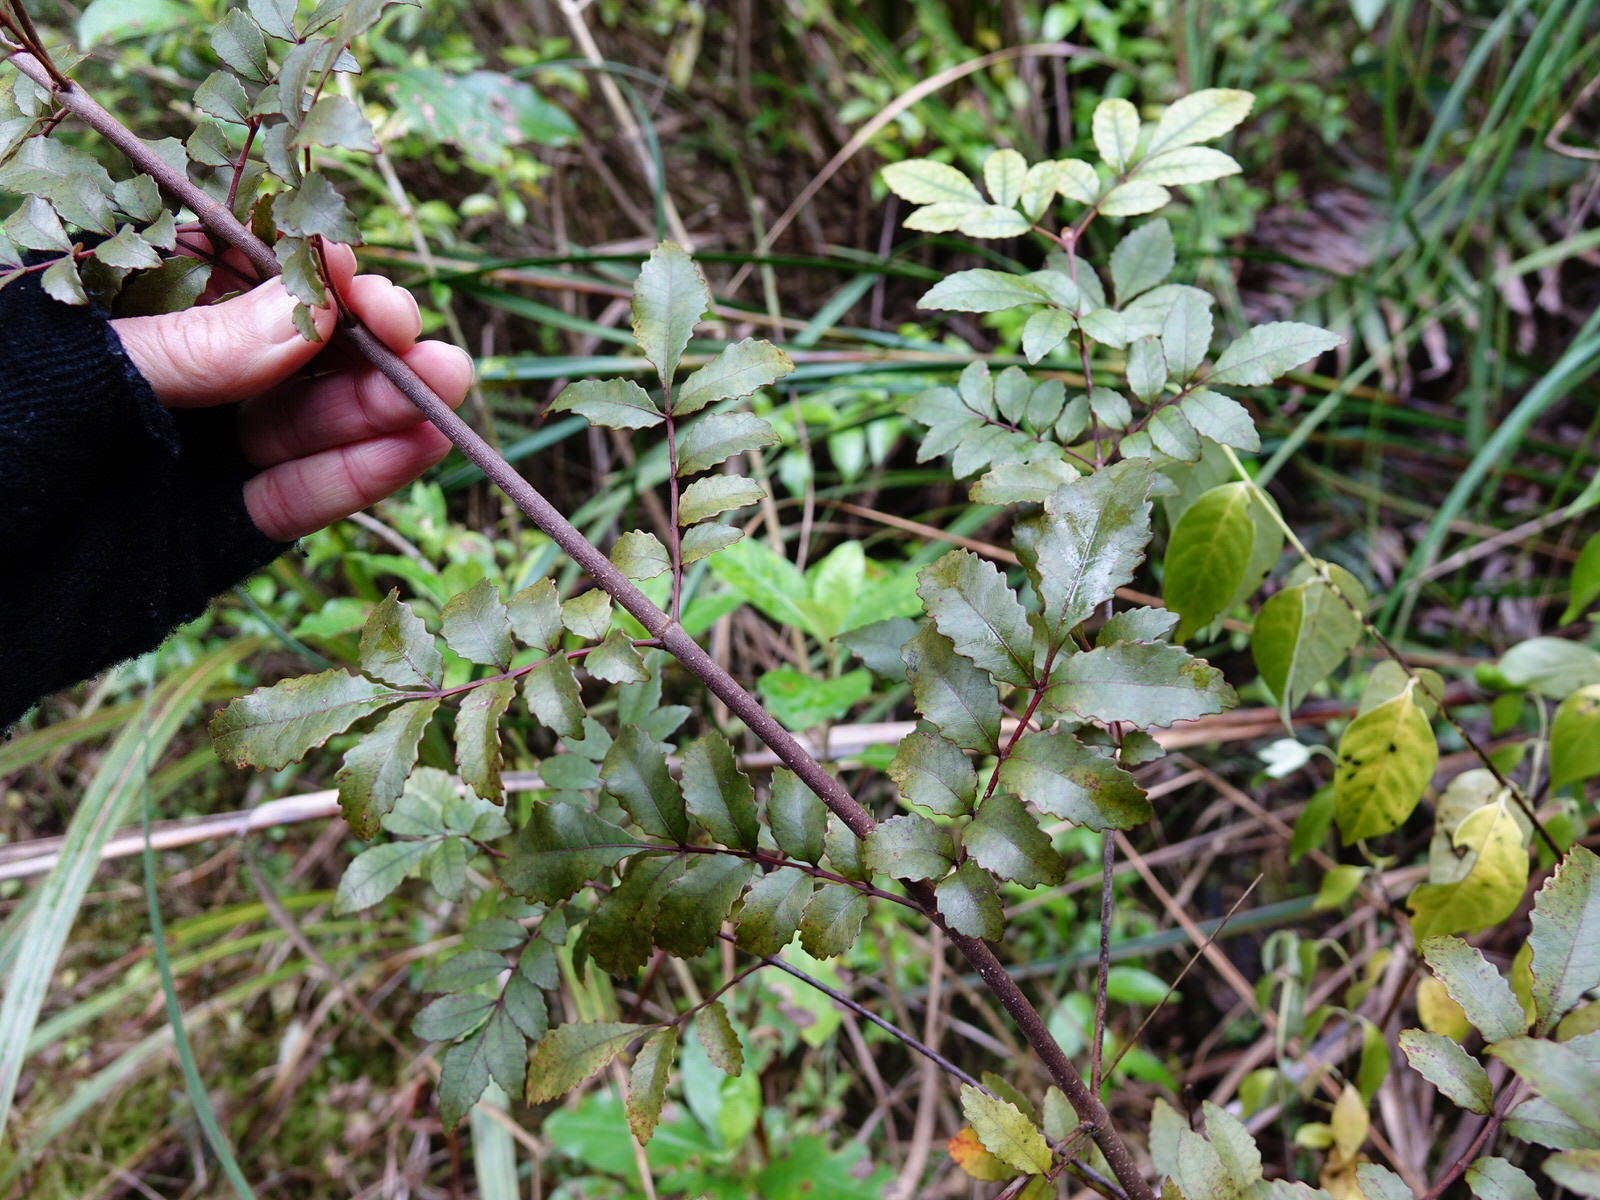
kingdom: Plantae
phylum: Tracheophyta
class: Magnoliopsida
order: Oxalidales
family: Cunoniaceae
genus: Pterophylla
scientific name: Pterophylla sylvicola
